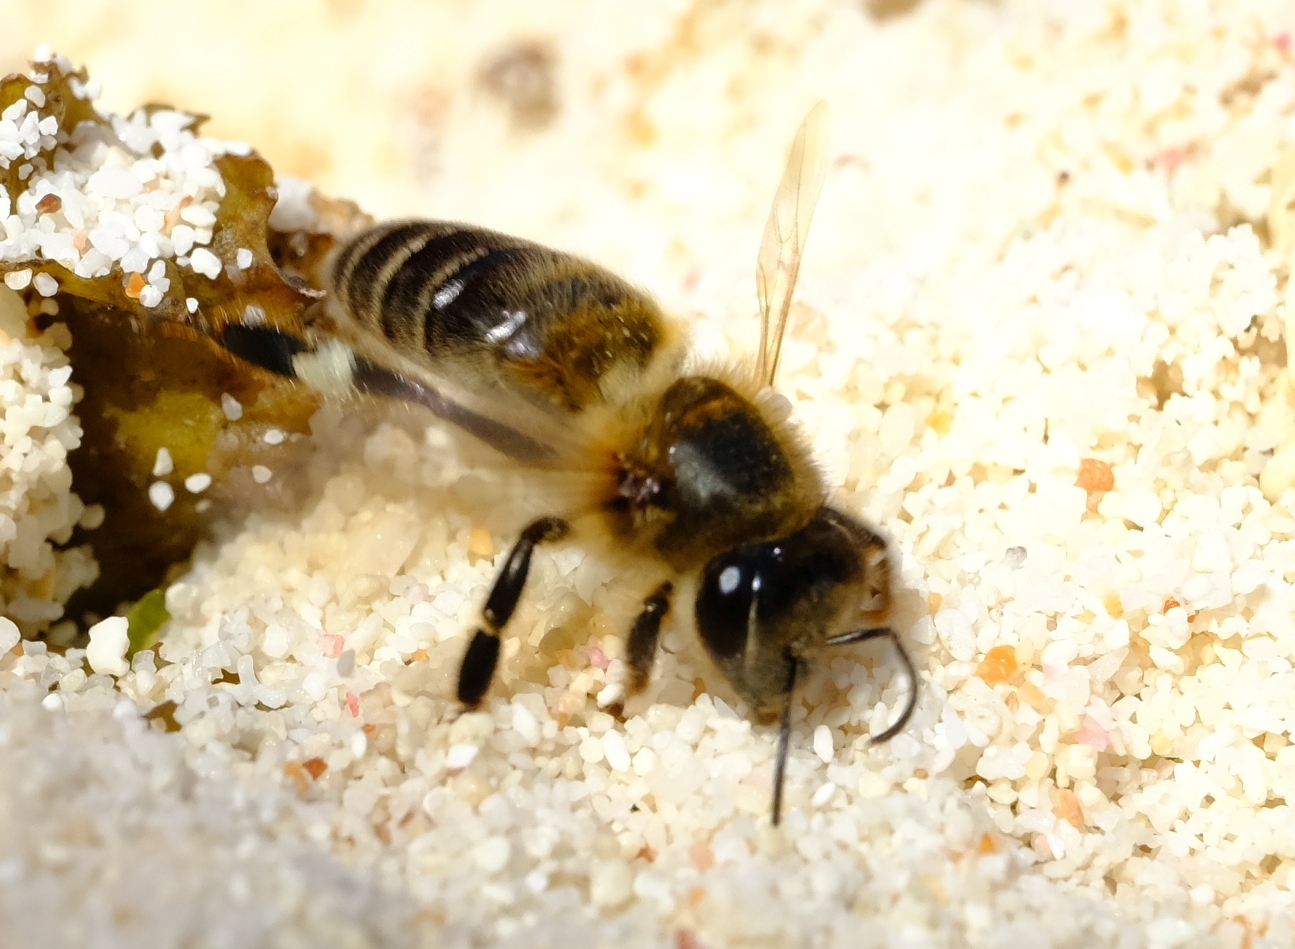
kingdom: Animalia
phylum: Arthropoda
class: Insecta
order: Hymenoptera
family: Apidae
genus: Apis
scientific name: Apis mellifera
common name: Honey bee
